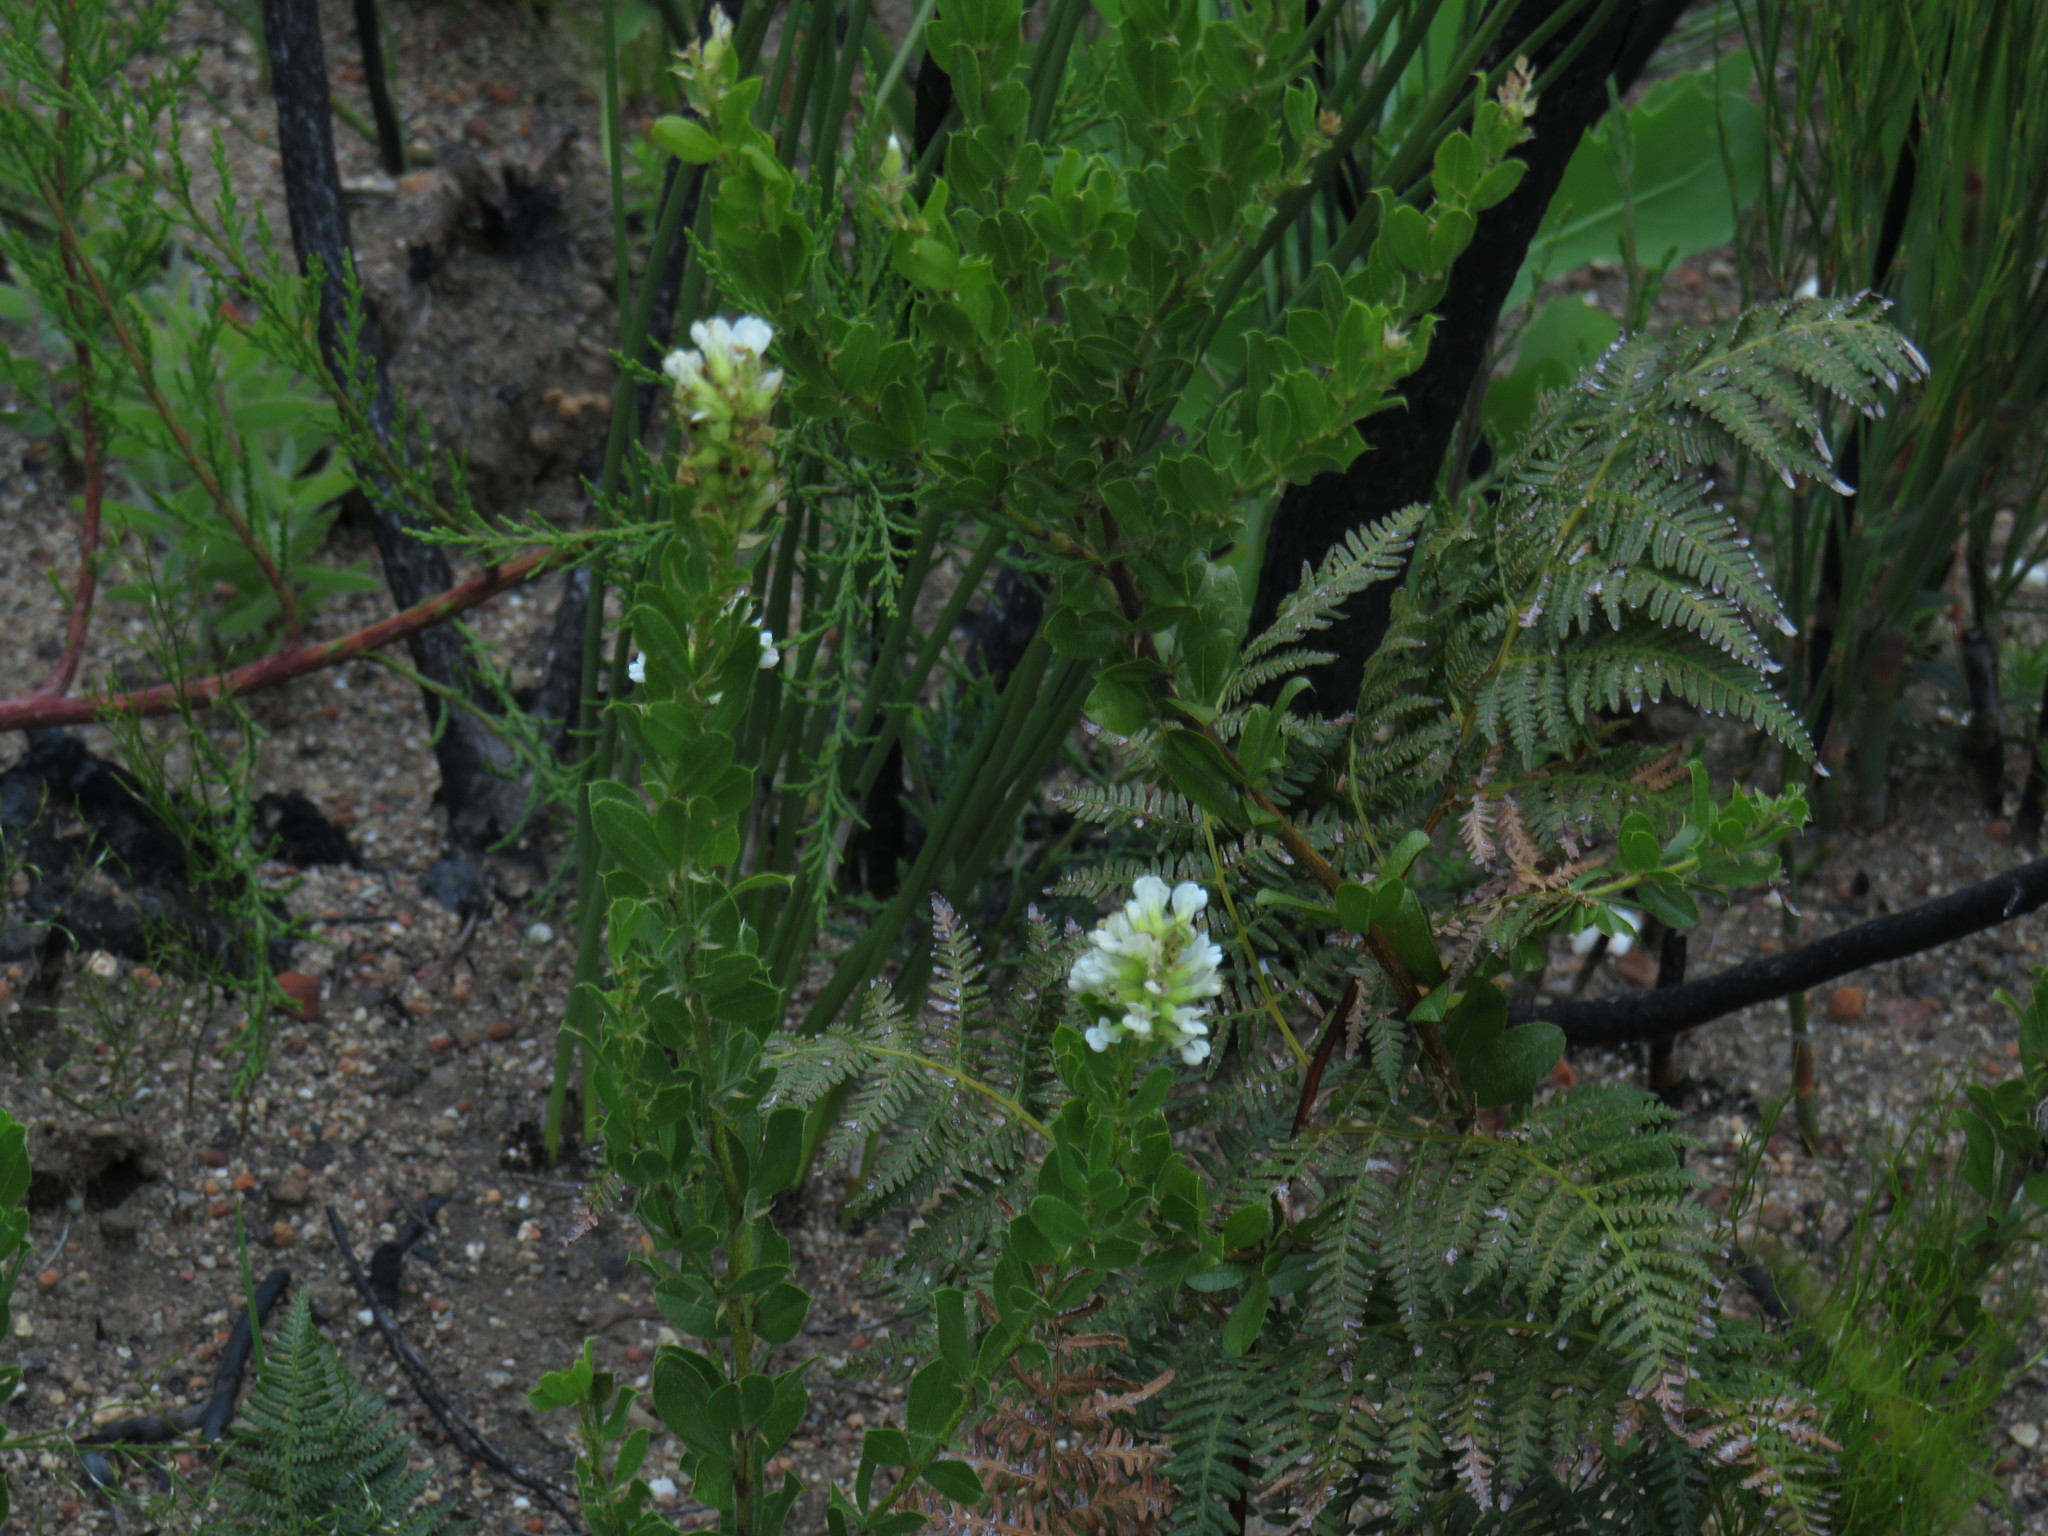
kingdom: Plantae
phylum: Tracheophyta
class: Magnoliopsida
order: Fabales
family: Fabaceae
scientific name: Fabaceae
